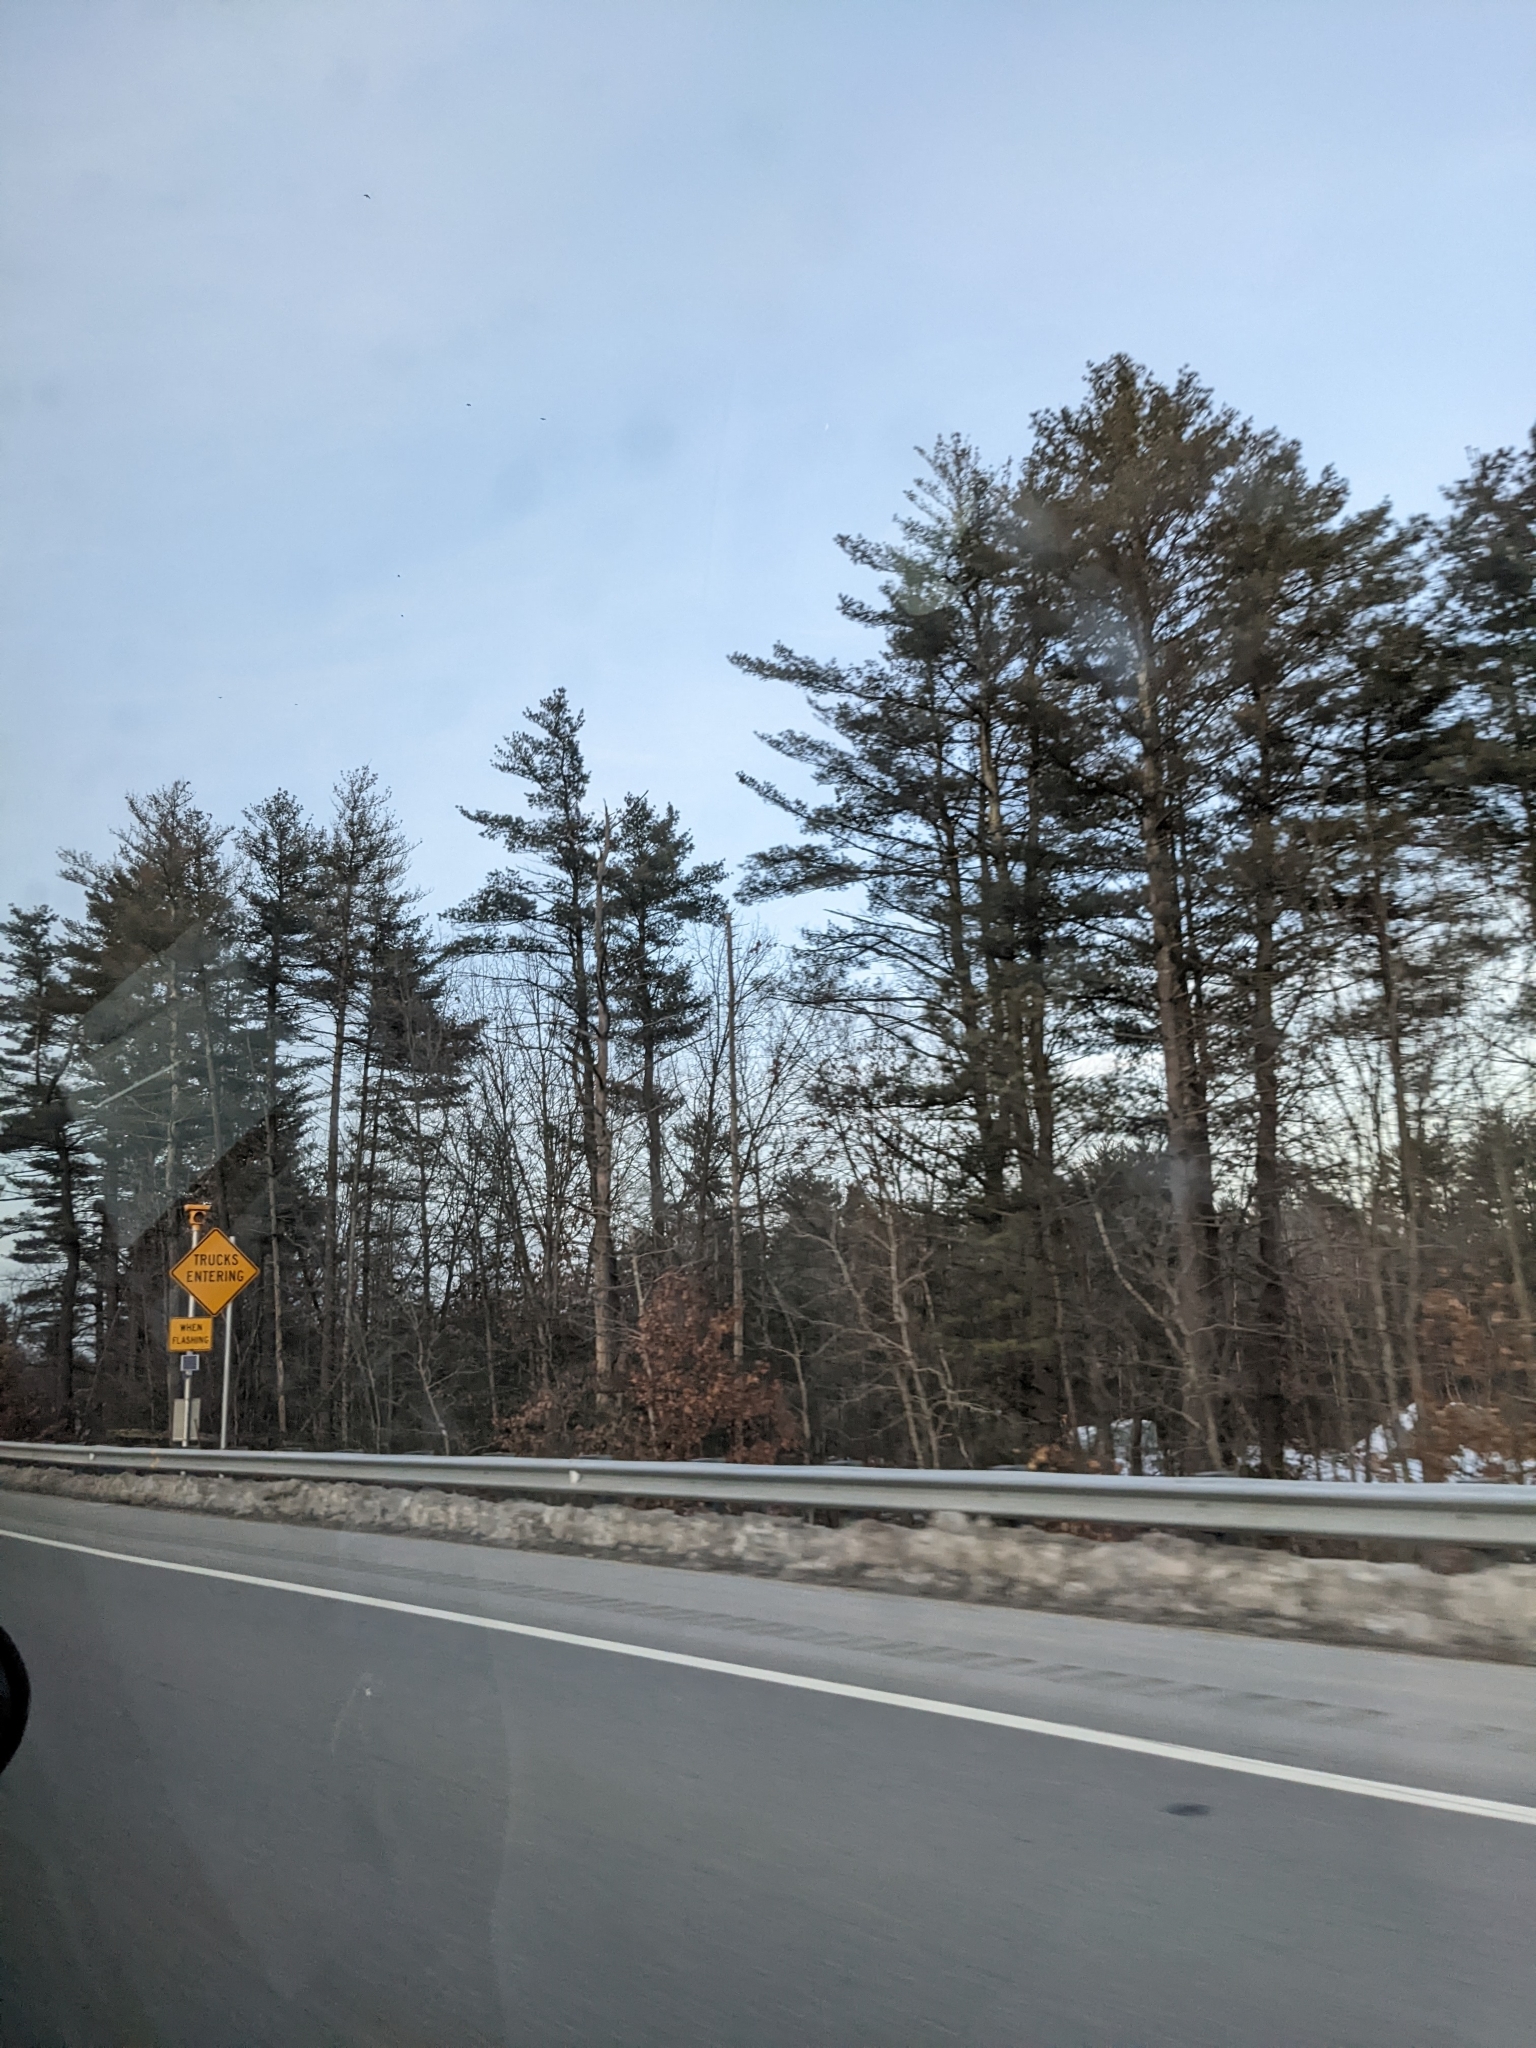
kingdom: Plantae
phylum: Tracheophyta
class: Pinopsida
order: Pinales
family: Pinaceae
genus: Pinus
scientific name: Pinus strobus
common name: Weymouth pine
